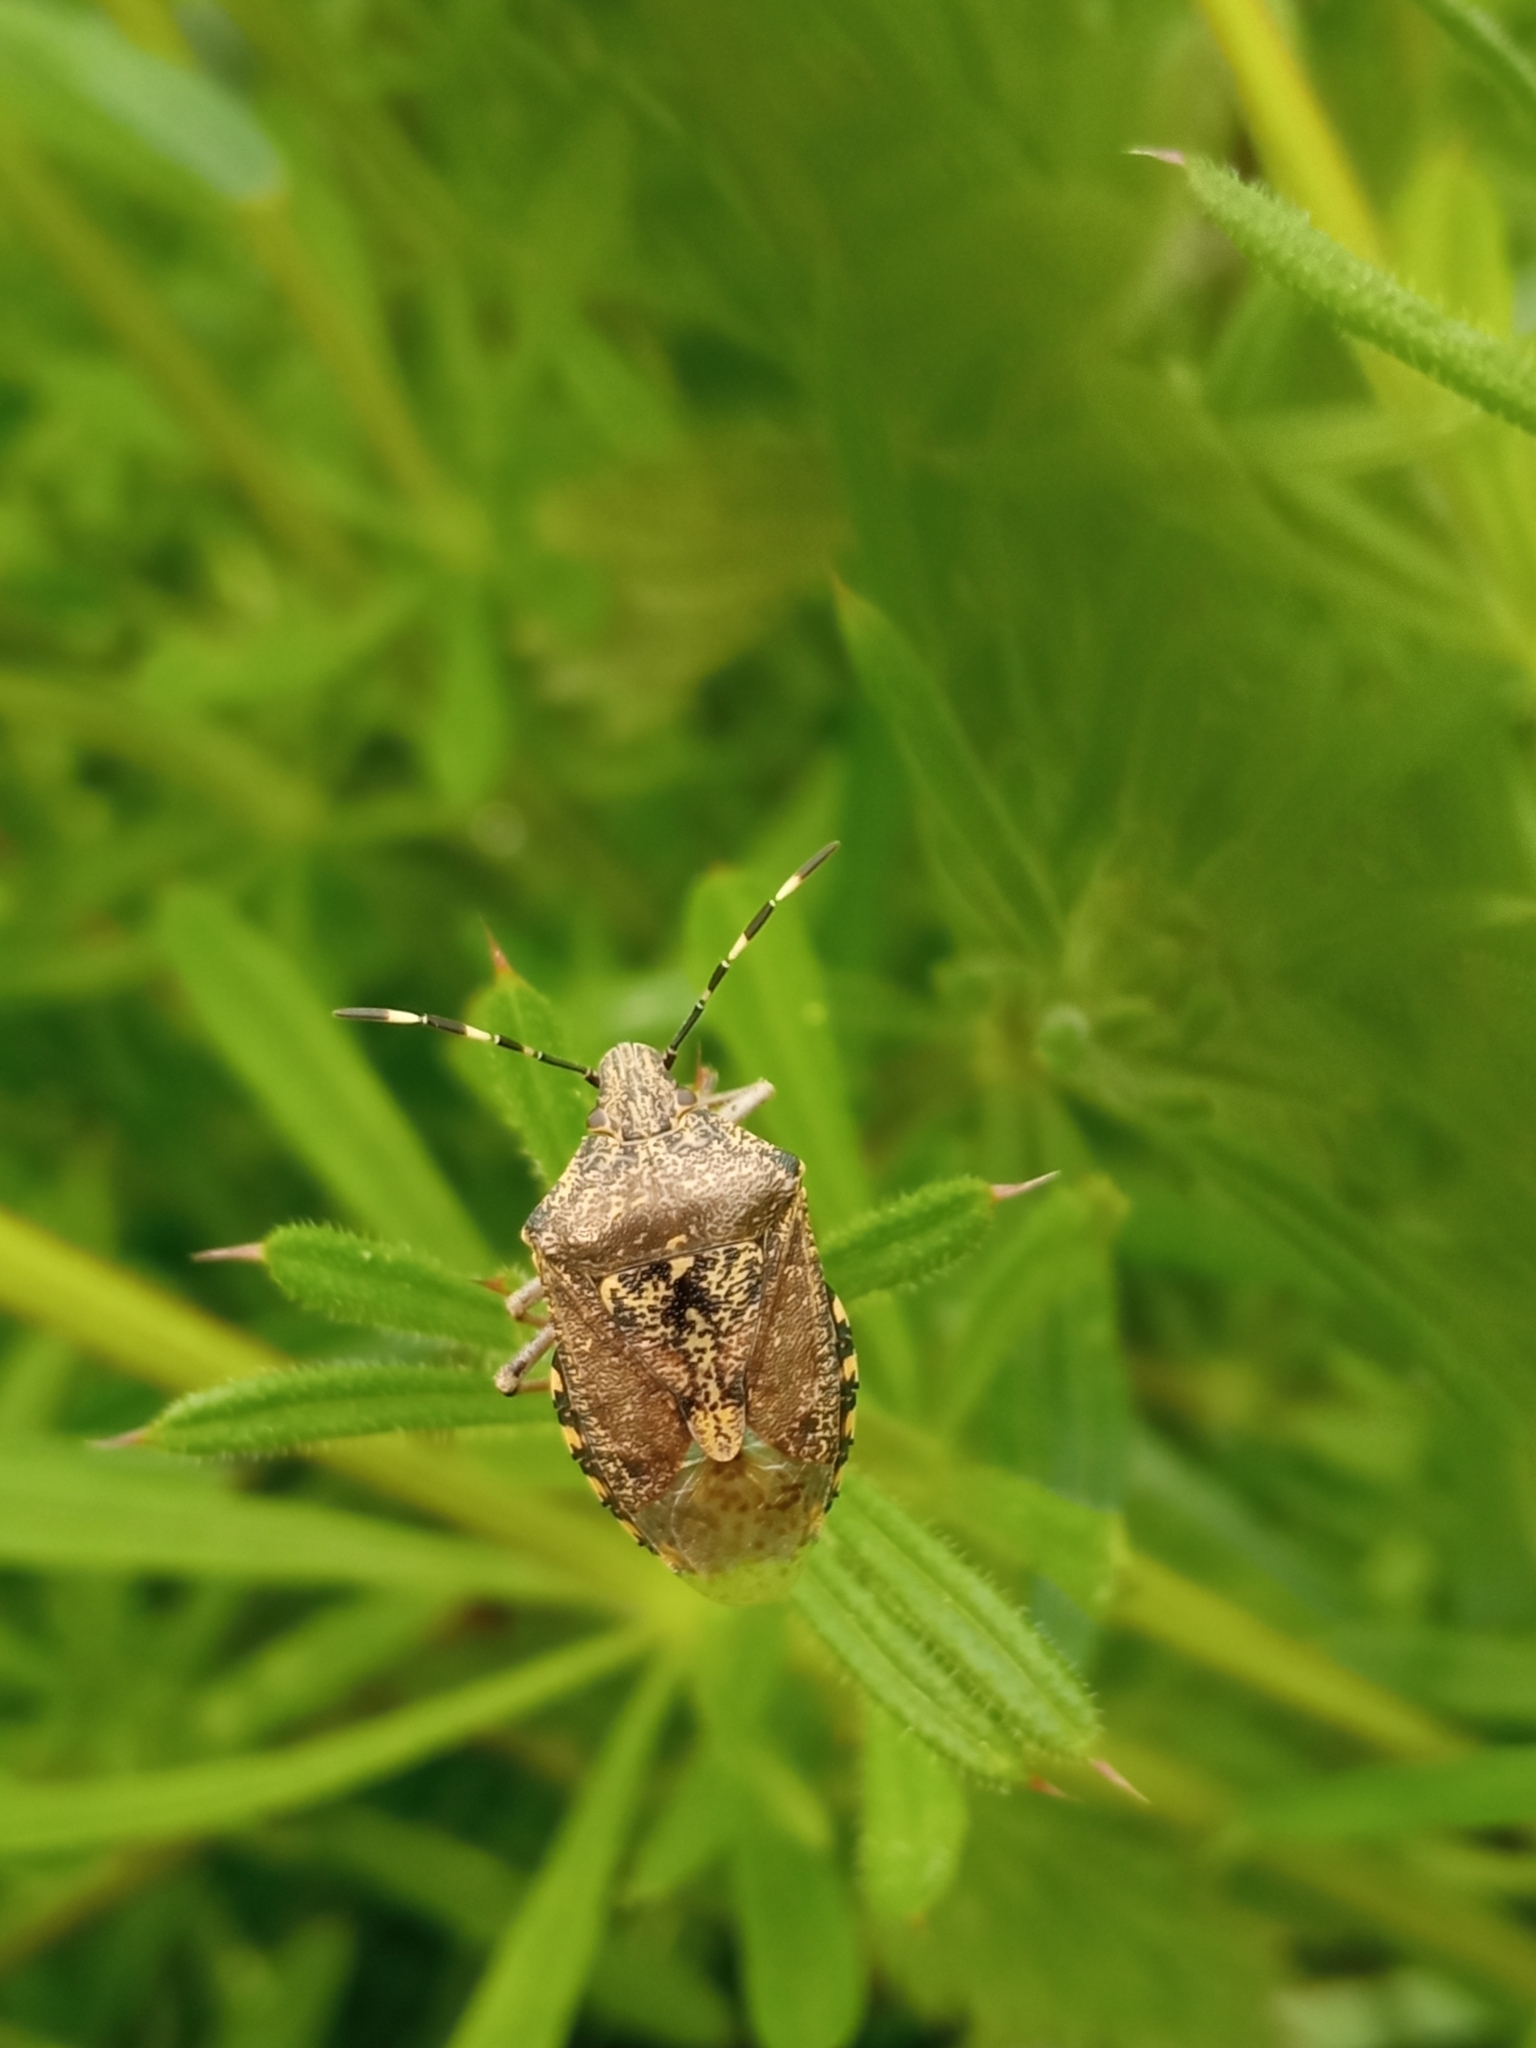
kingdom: Animalia
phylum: Arthropoda
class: Insecta
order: Hemiptera
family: Pentatomidae
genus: Rhaphigaster
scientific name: Rhaphigaster nebulosa
